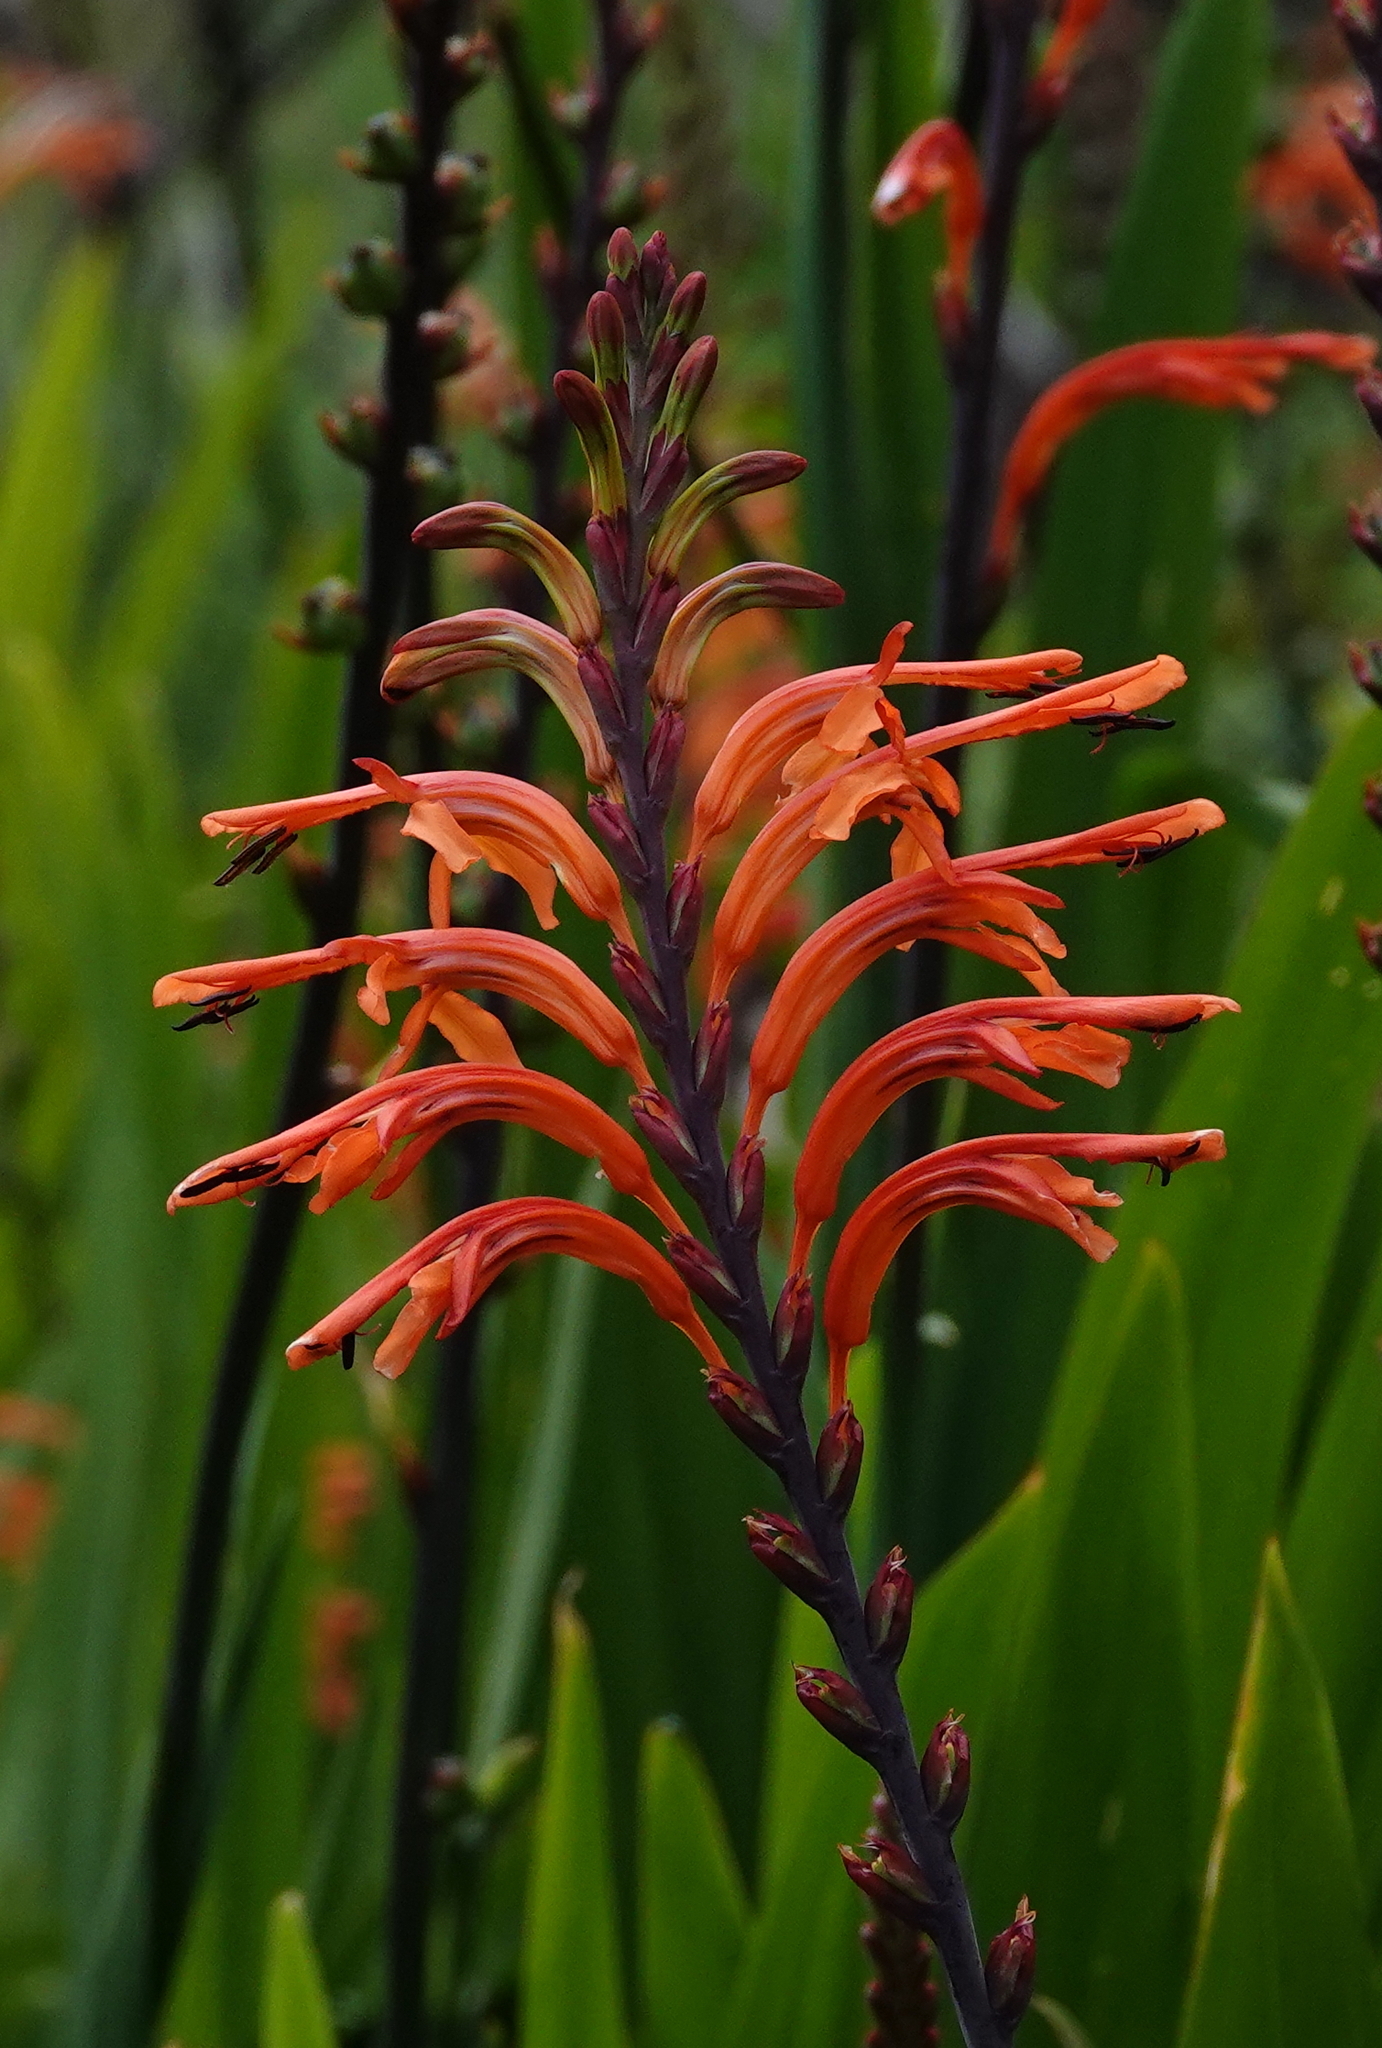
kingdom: Plantae
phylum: Tracheophyta
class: Liliopsida
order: Asparagales
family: Iridaceae
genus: Chasmanthe
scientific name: Chasmanthe floribunda
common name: African cornflag
